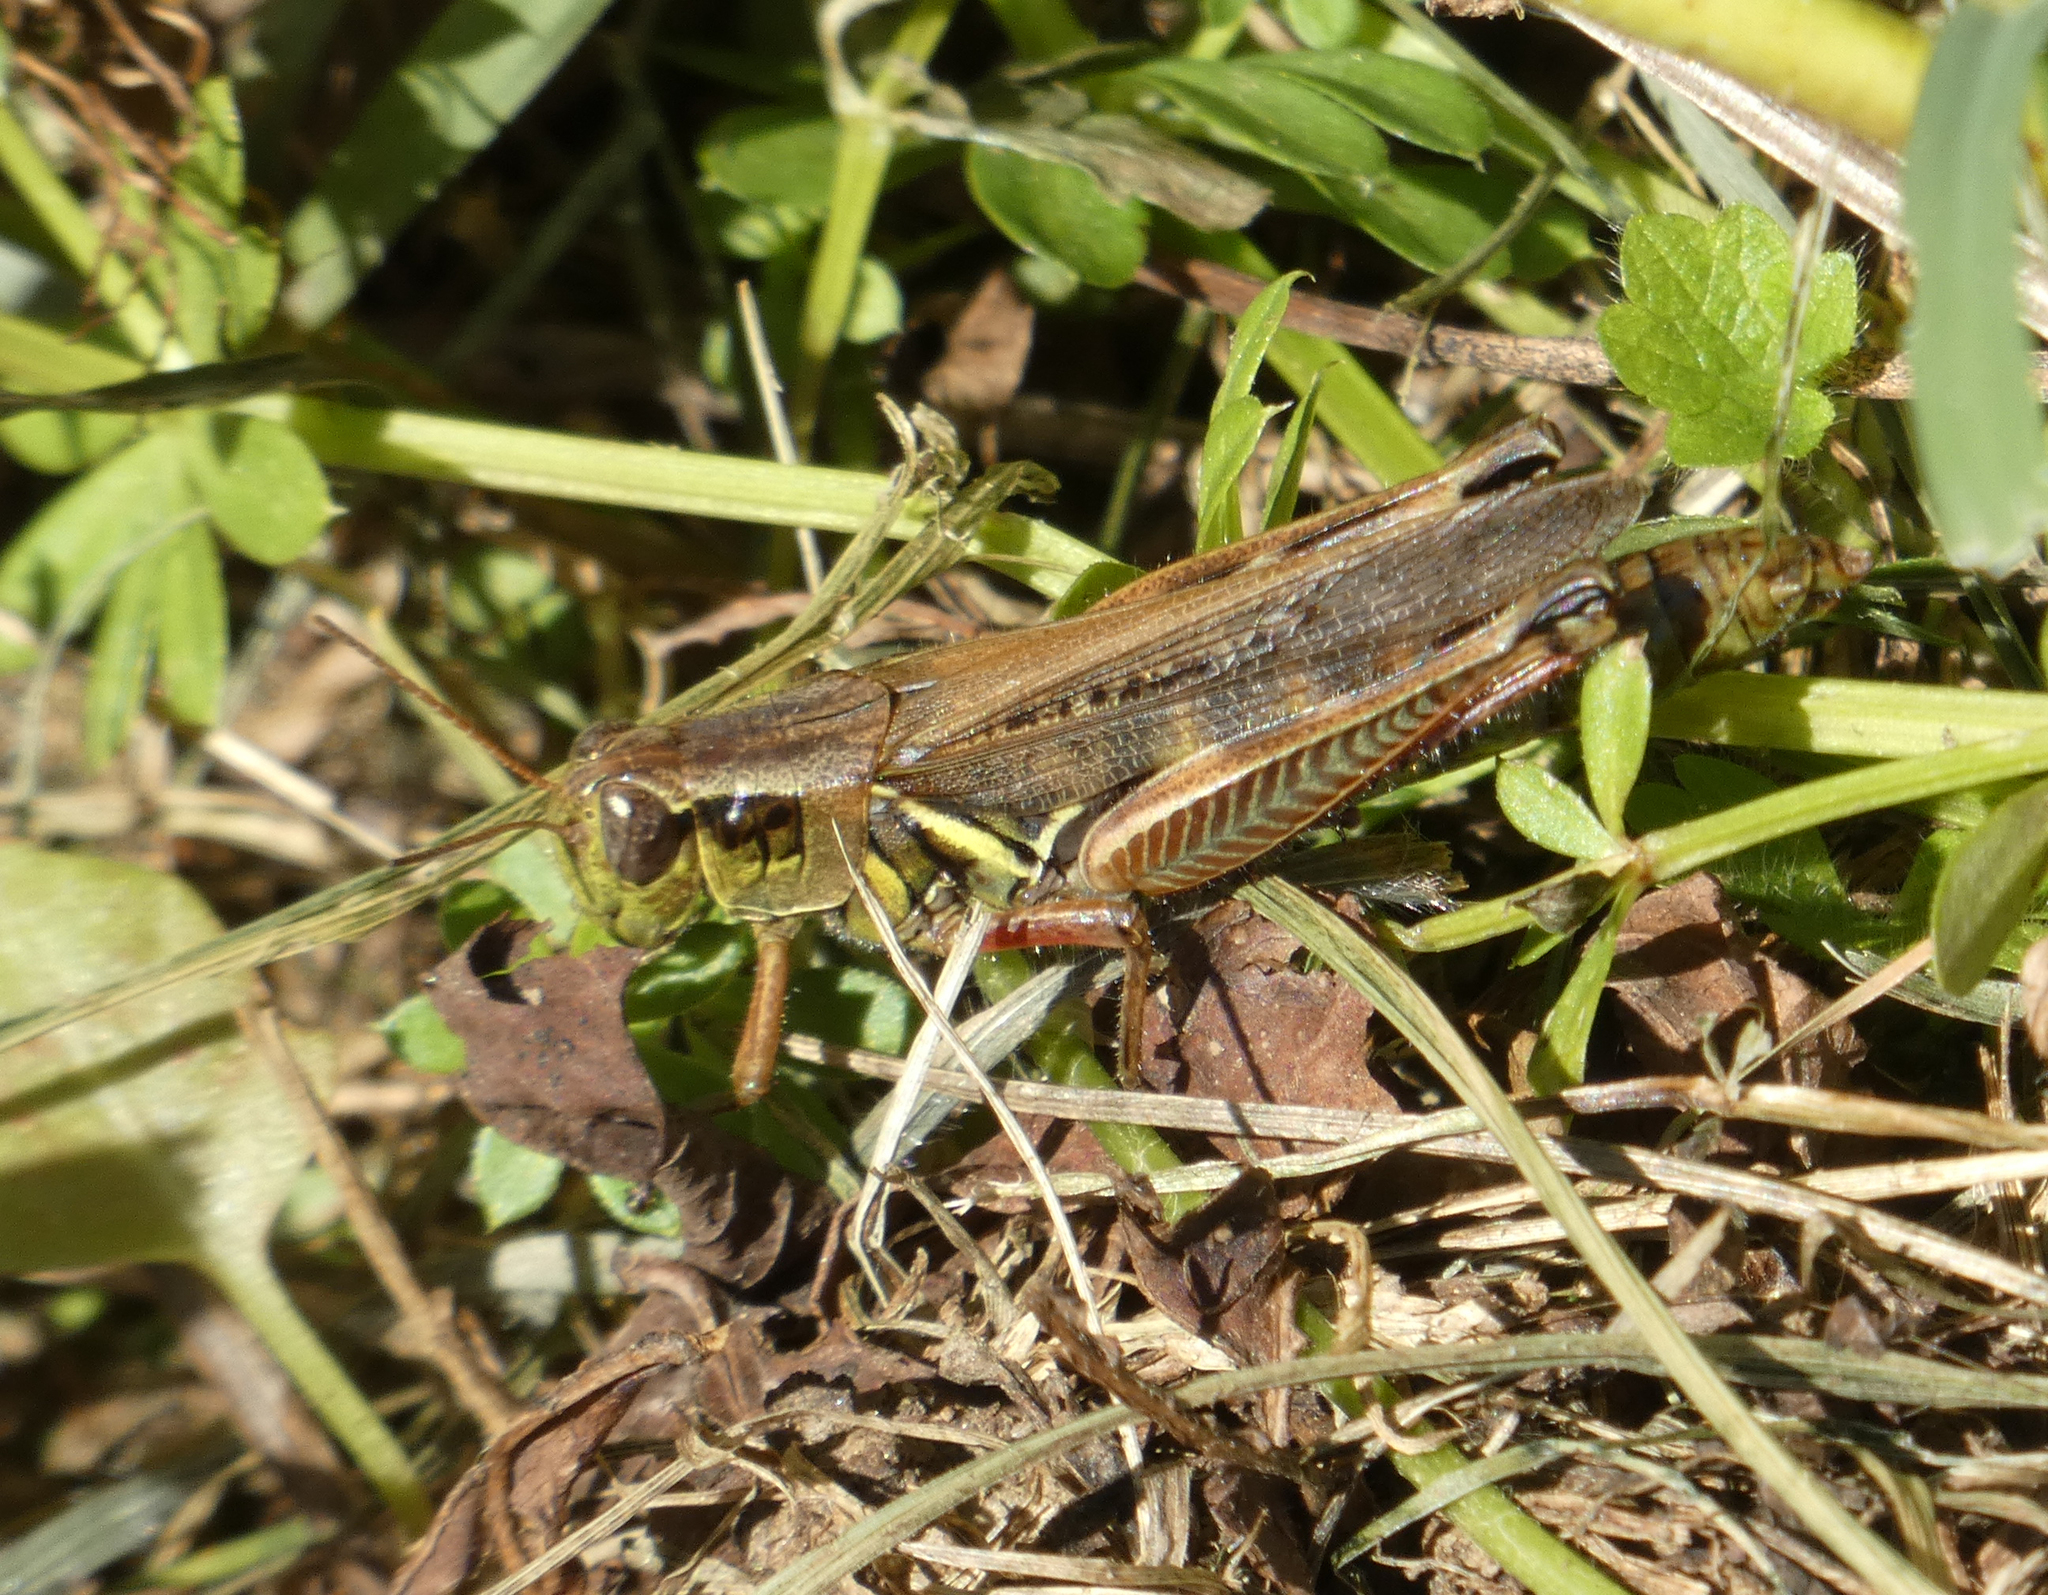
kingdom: Animalia
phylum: Arthropoda
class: Insecta
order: Orthoptera
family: Acrididae
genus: Melanoplus
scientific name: Melanoplus femurrubrum
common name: Red-legged grasshopper
